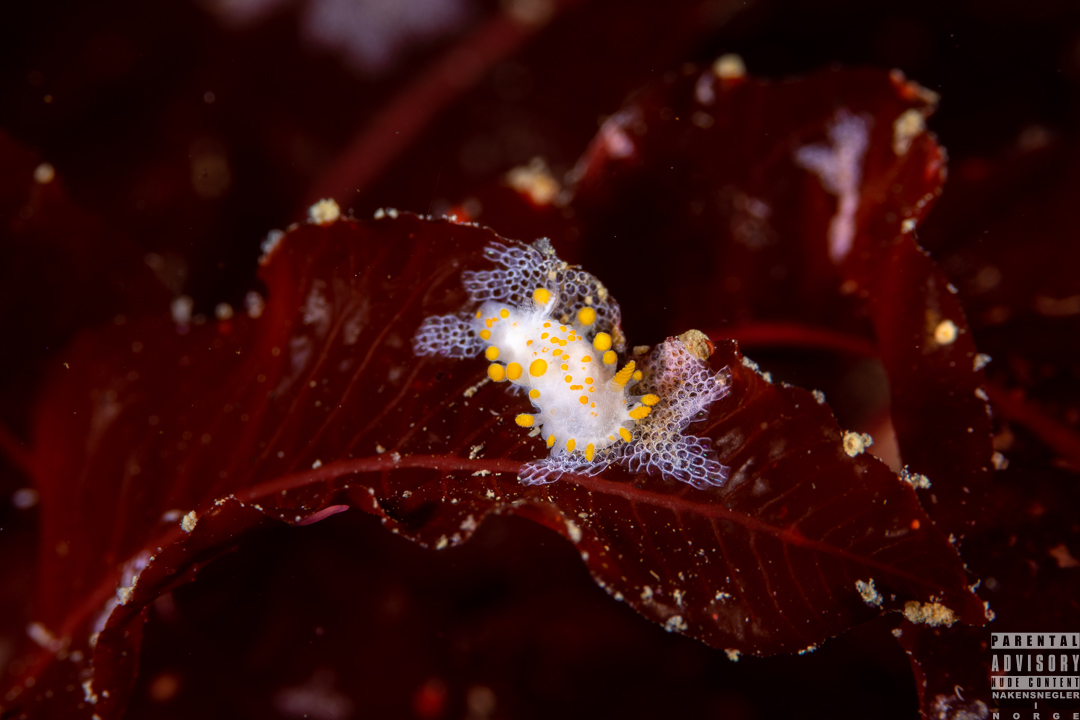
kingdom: Animalia
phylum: Mollusca
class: Gastropoda
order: Nudibranchia
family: Polyceridae
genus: Limacia
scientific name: Limacia clavigera
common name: Orange-clubbed sea slug
